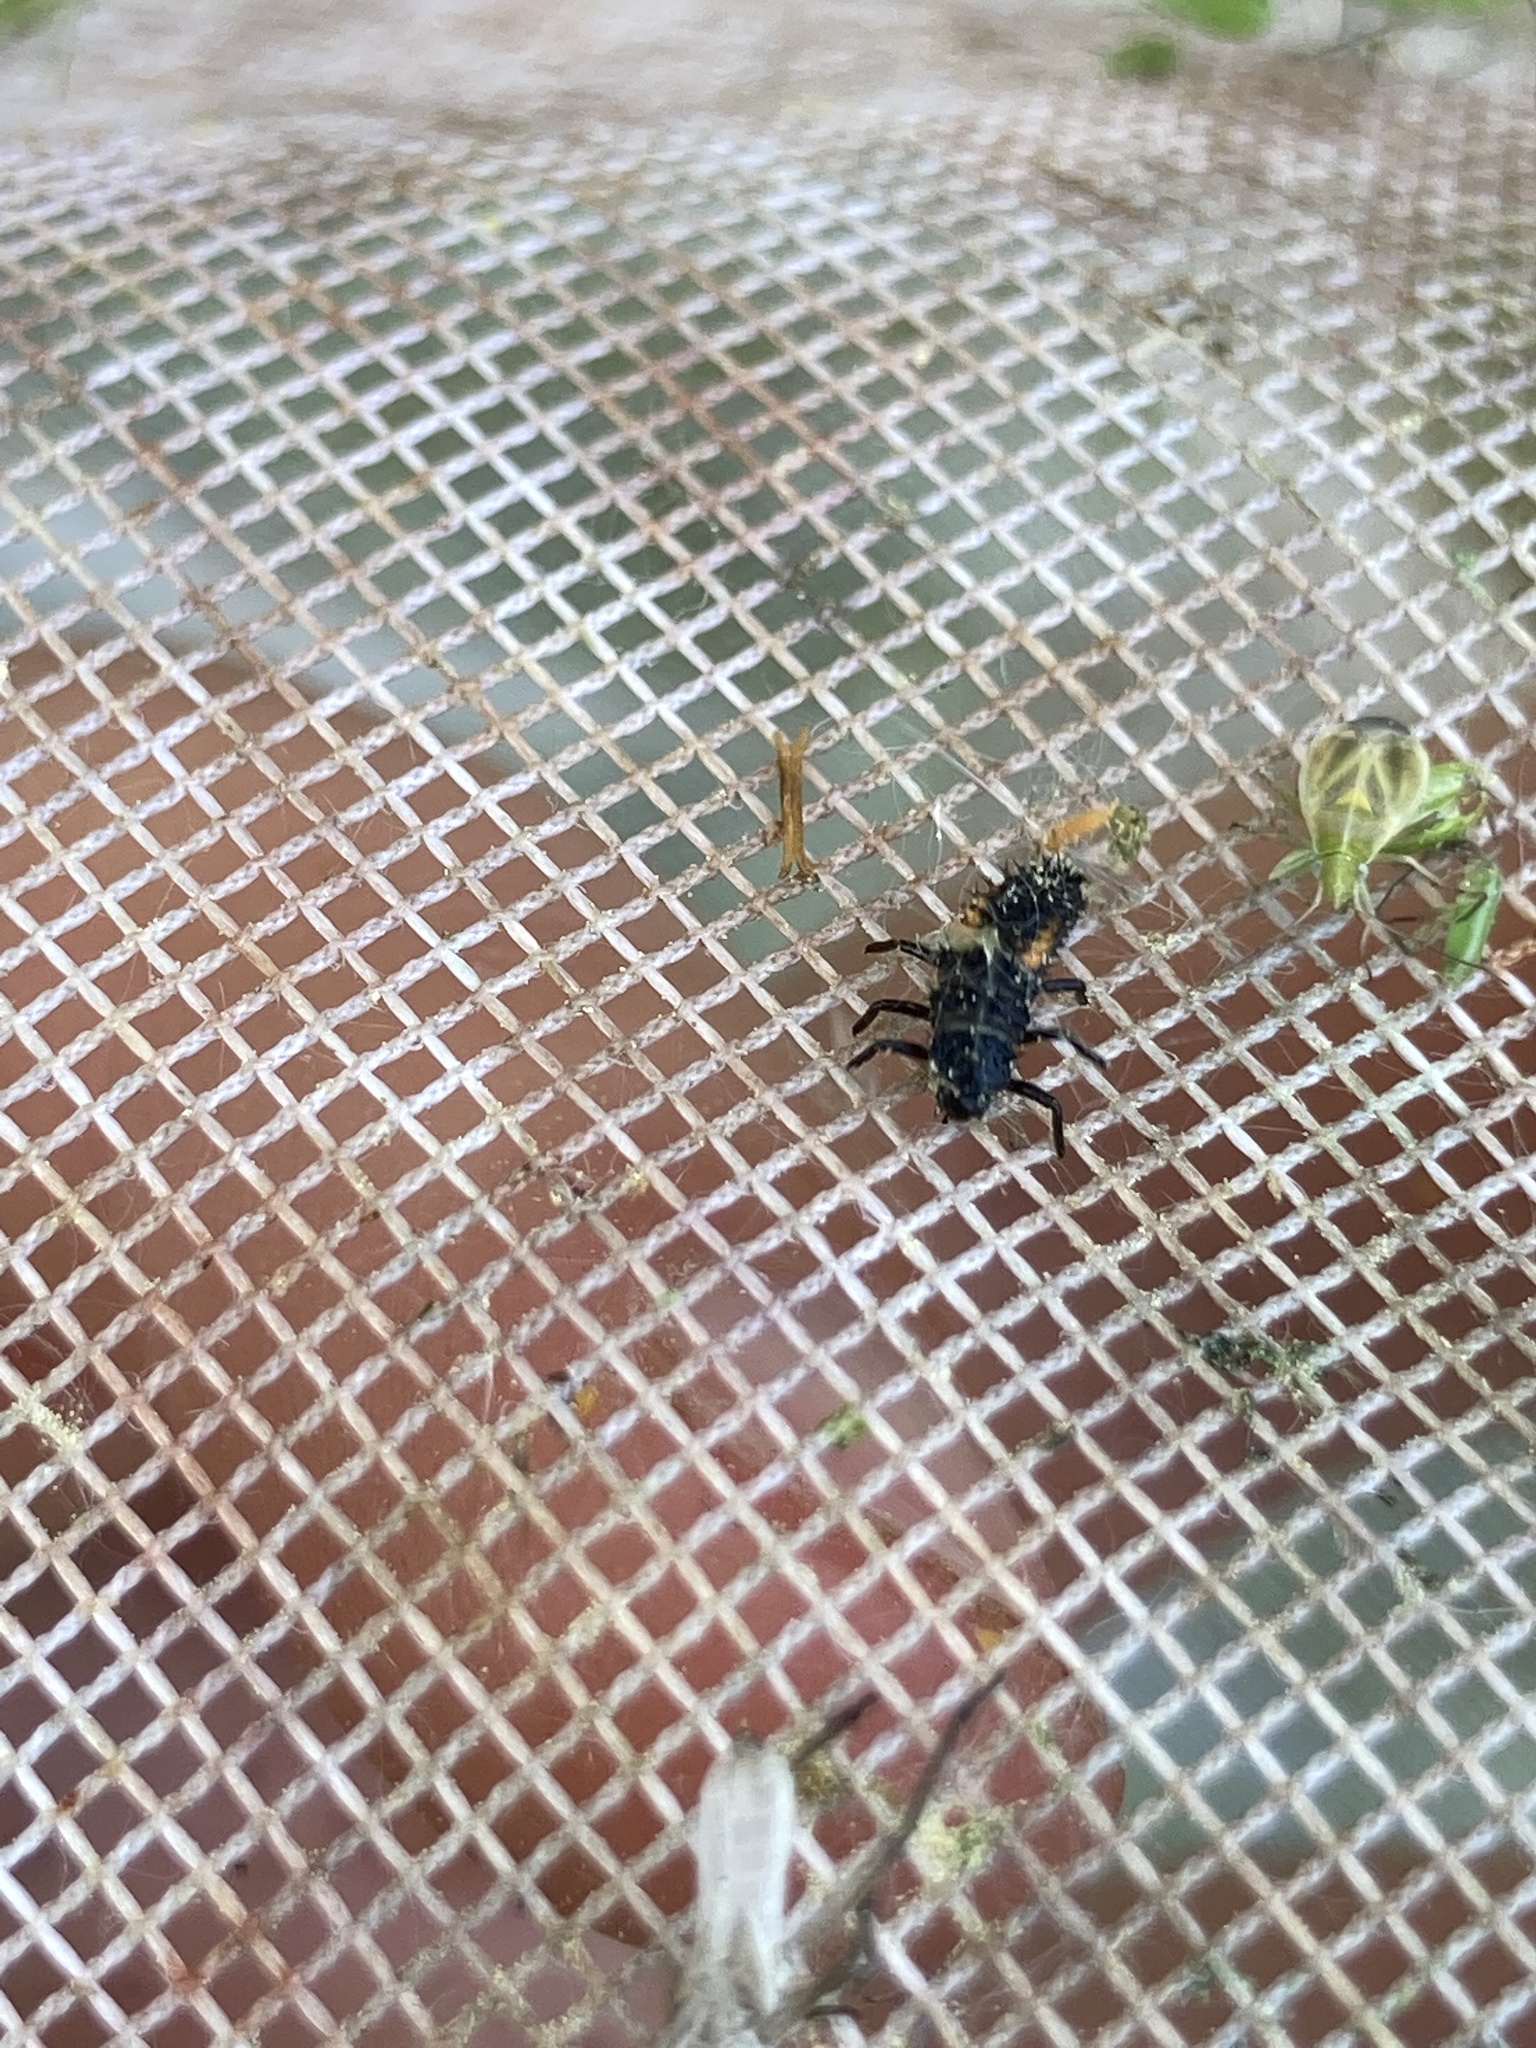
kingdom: Animalia
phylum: Arthropoda
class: Insecta
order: Coleoptera
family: Coccinellidae
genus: Harmonia
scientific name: Harmonia axyridis
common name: Harlequin ladybird
